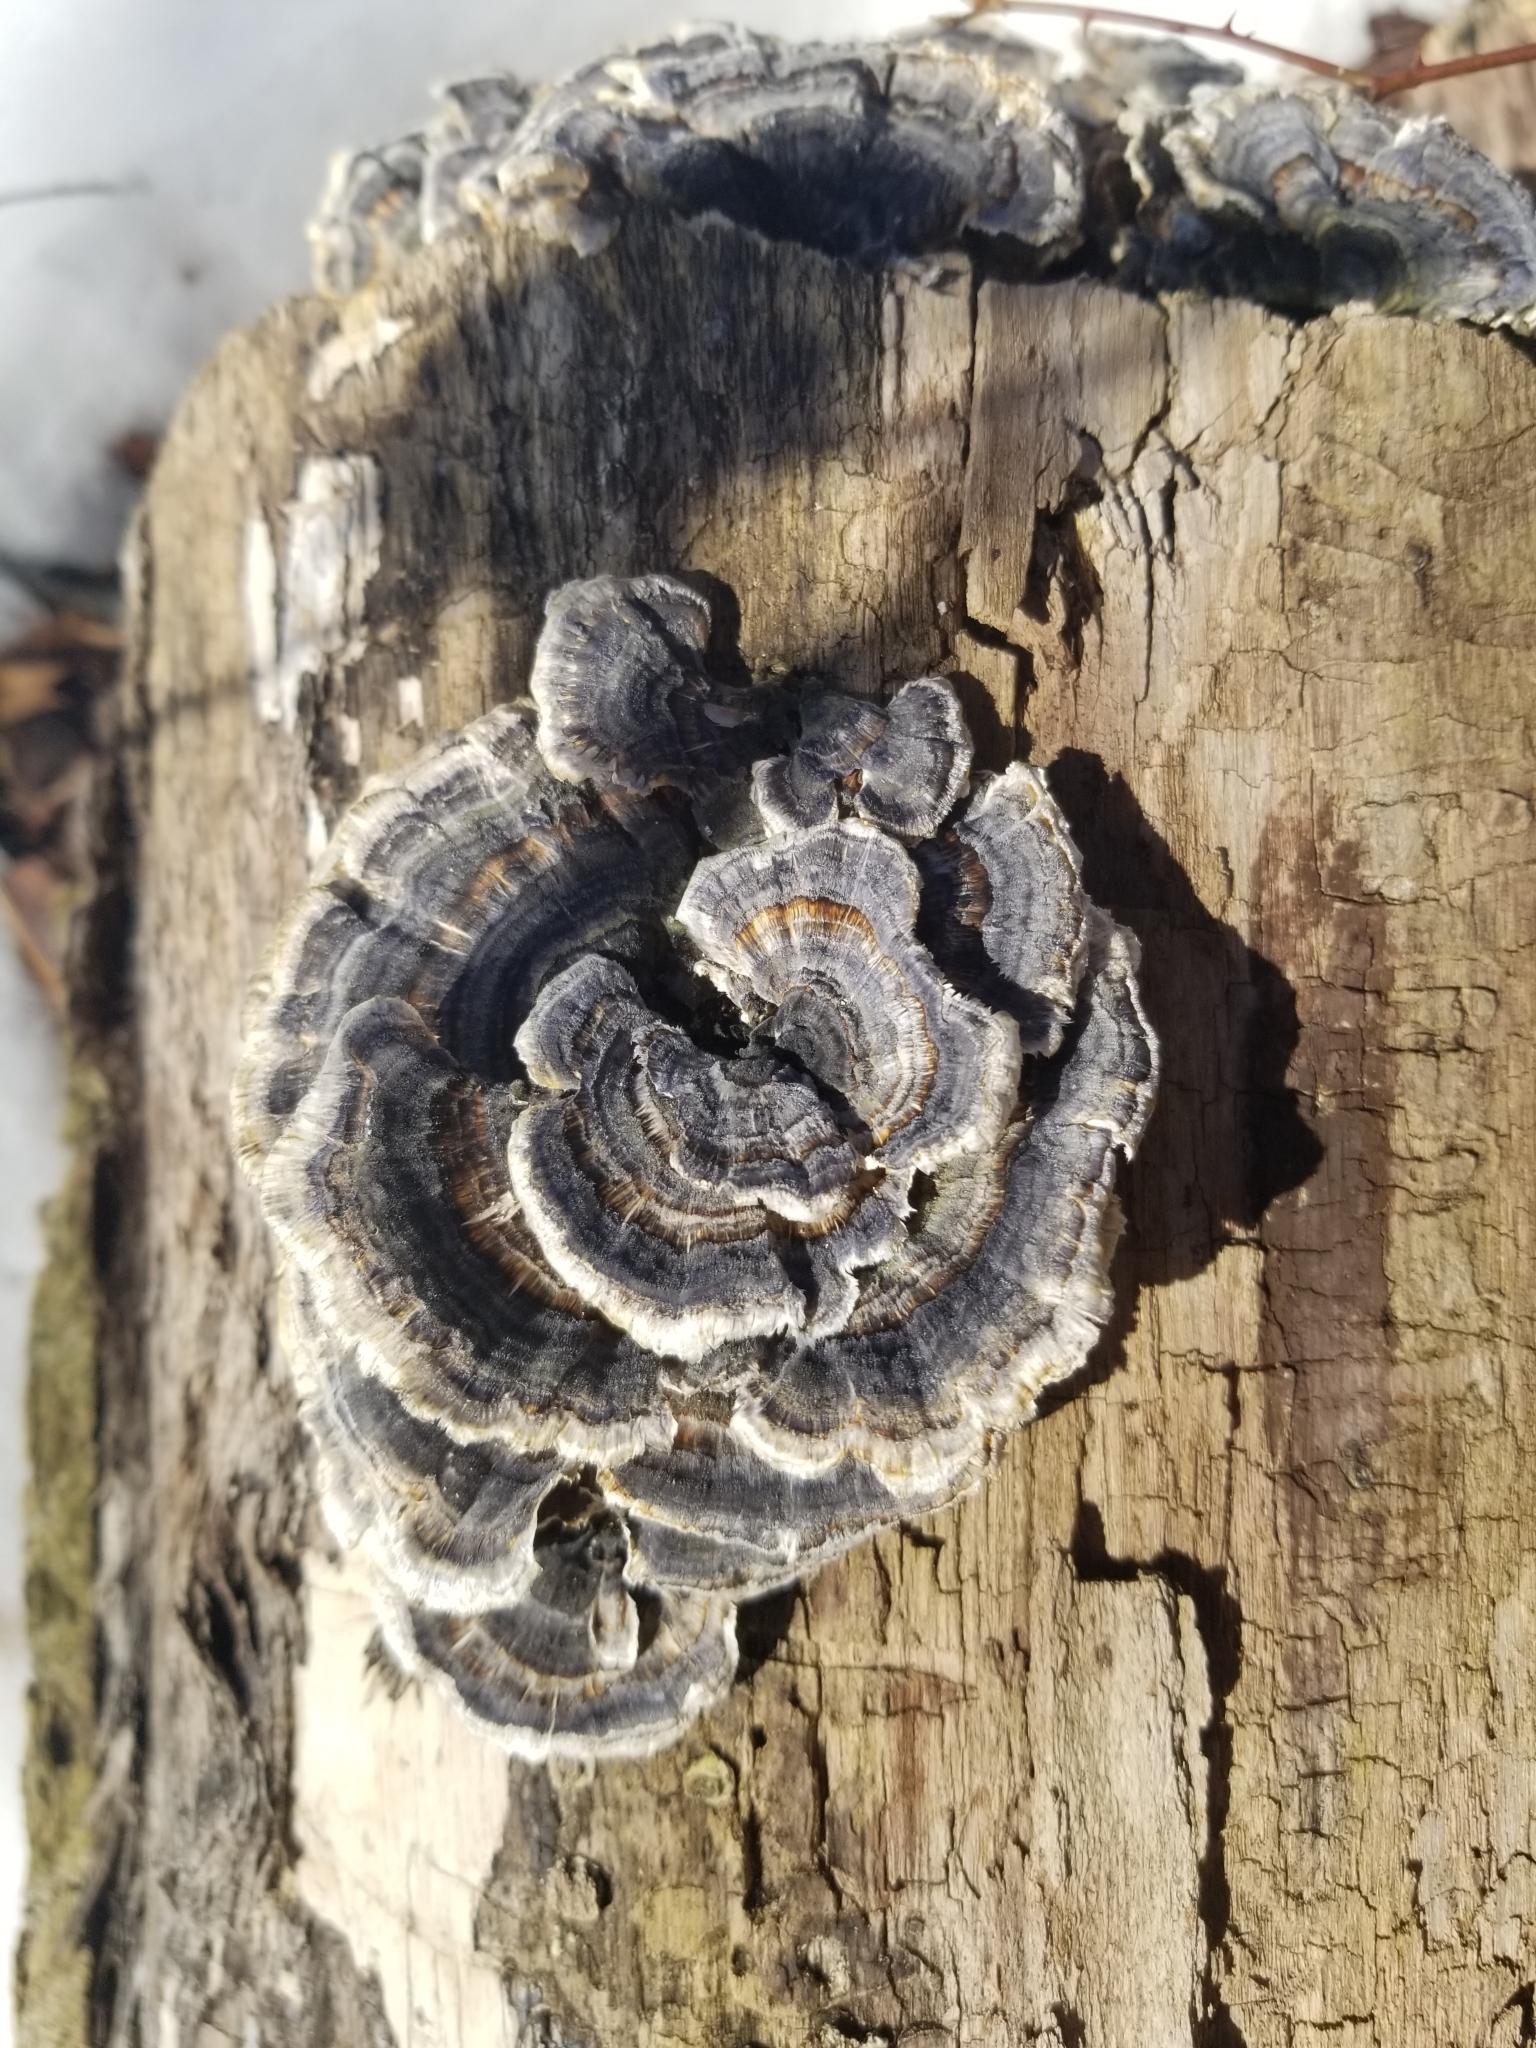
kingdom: Fungi
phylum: Basidiomycota
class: Agaricomycetes
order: Polyporales
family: Polyporaceae
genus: Trametes
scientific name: Trametes versicolor
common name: Turkeytail
